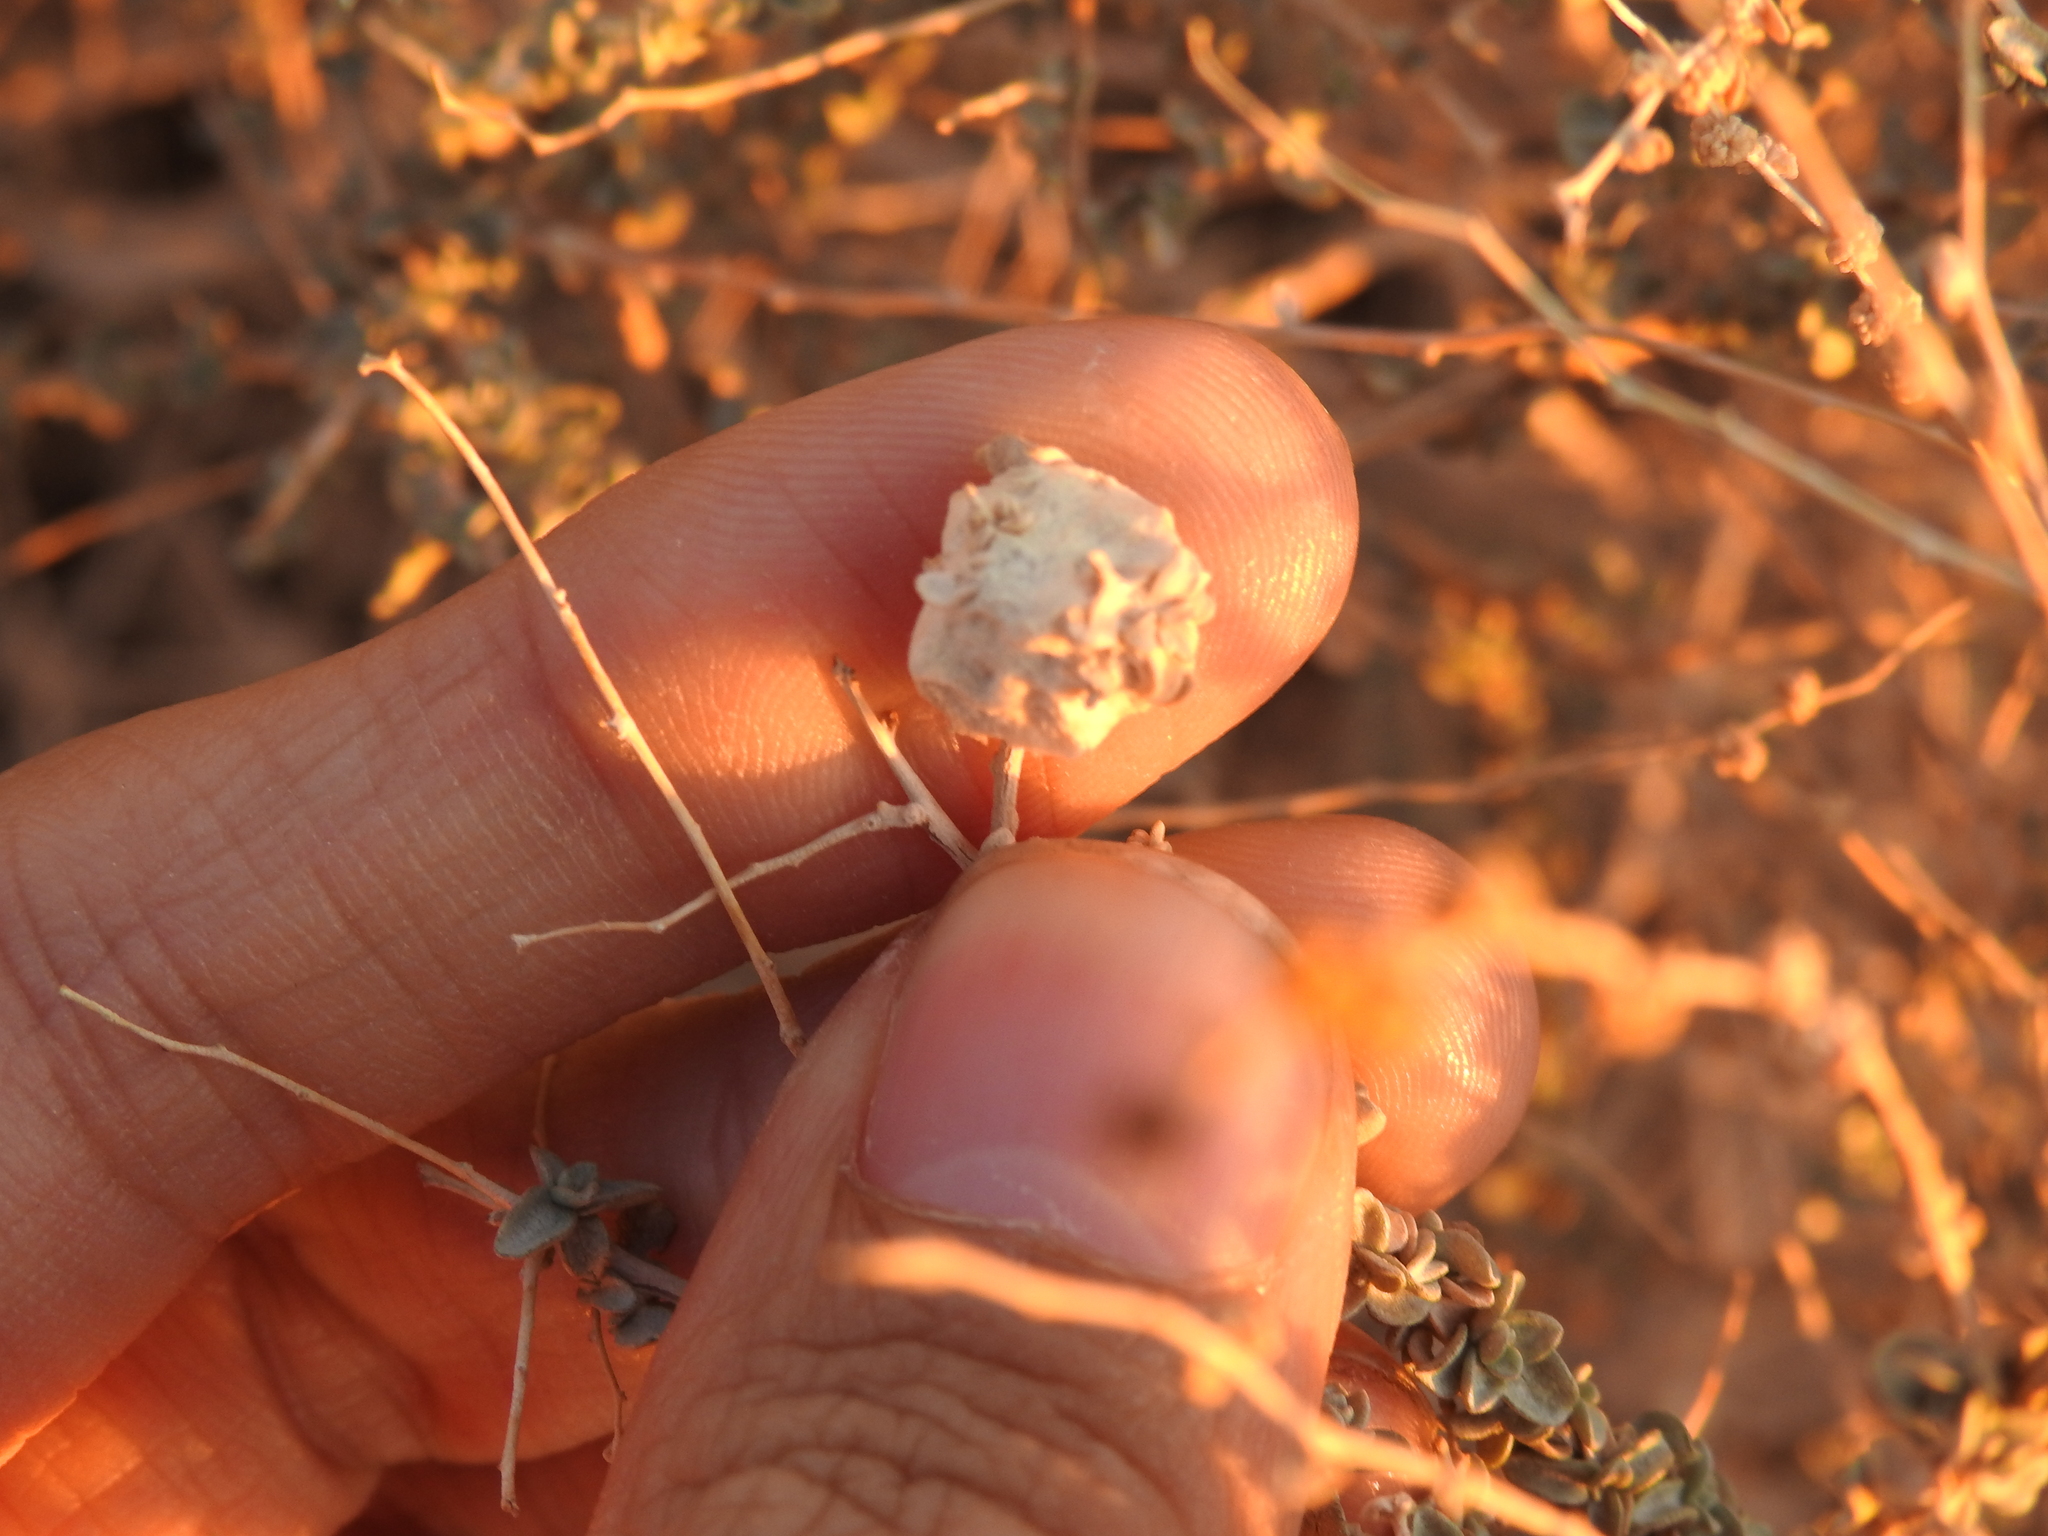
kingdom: Animalia
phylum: Arthropoda
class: Insecta
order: Diptera
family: Cecidomyiidae
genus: Asphondylia
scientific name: Asphondylia floccosa
